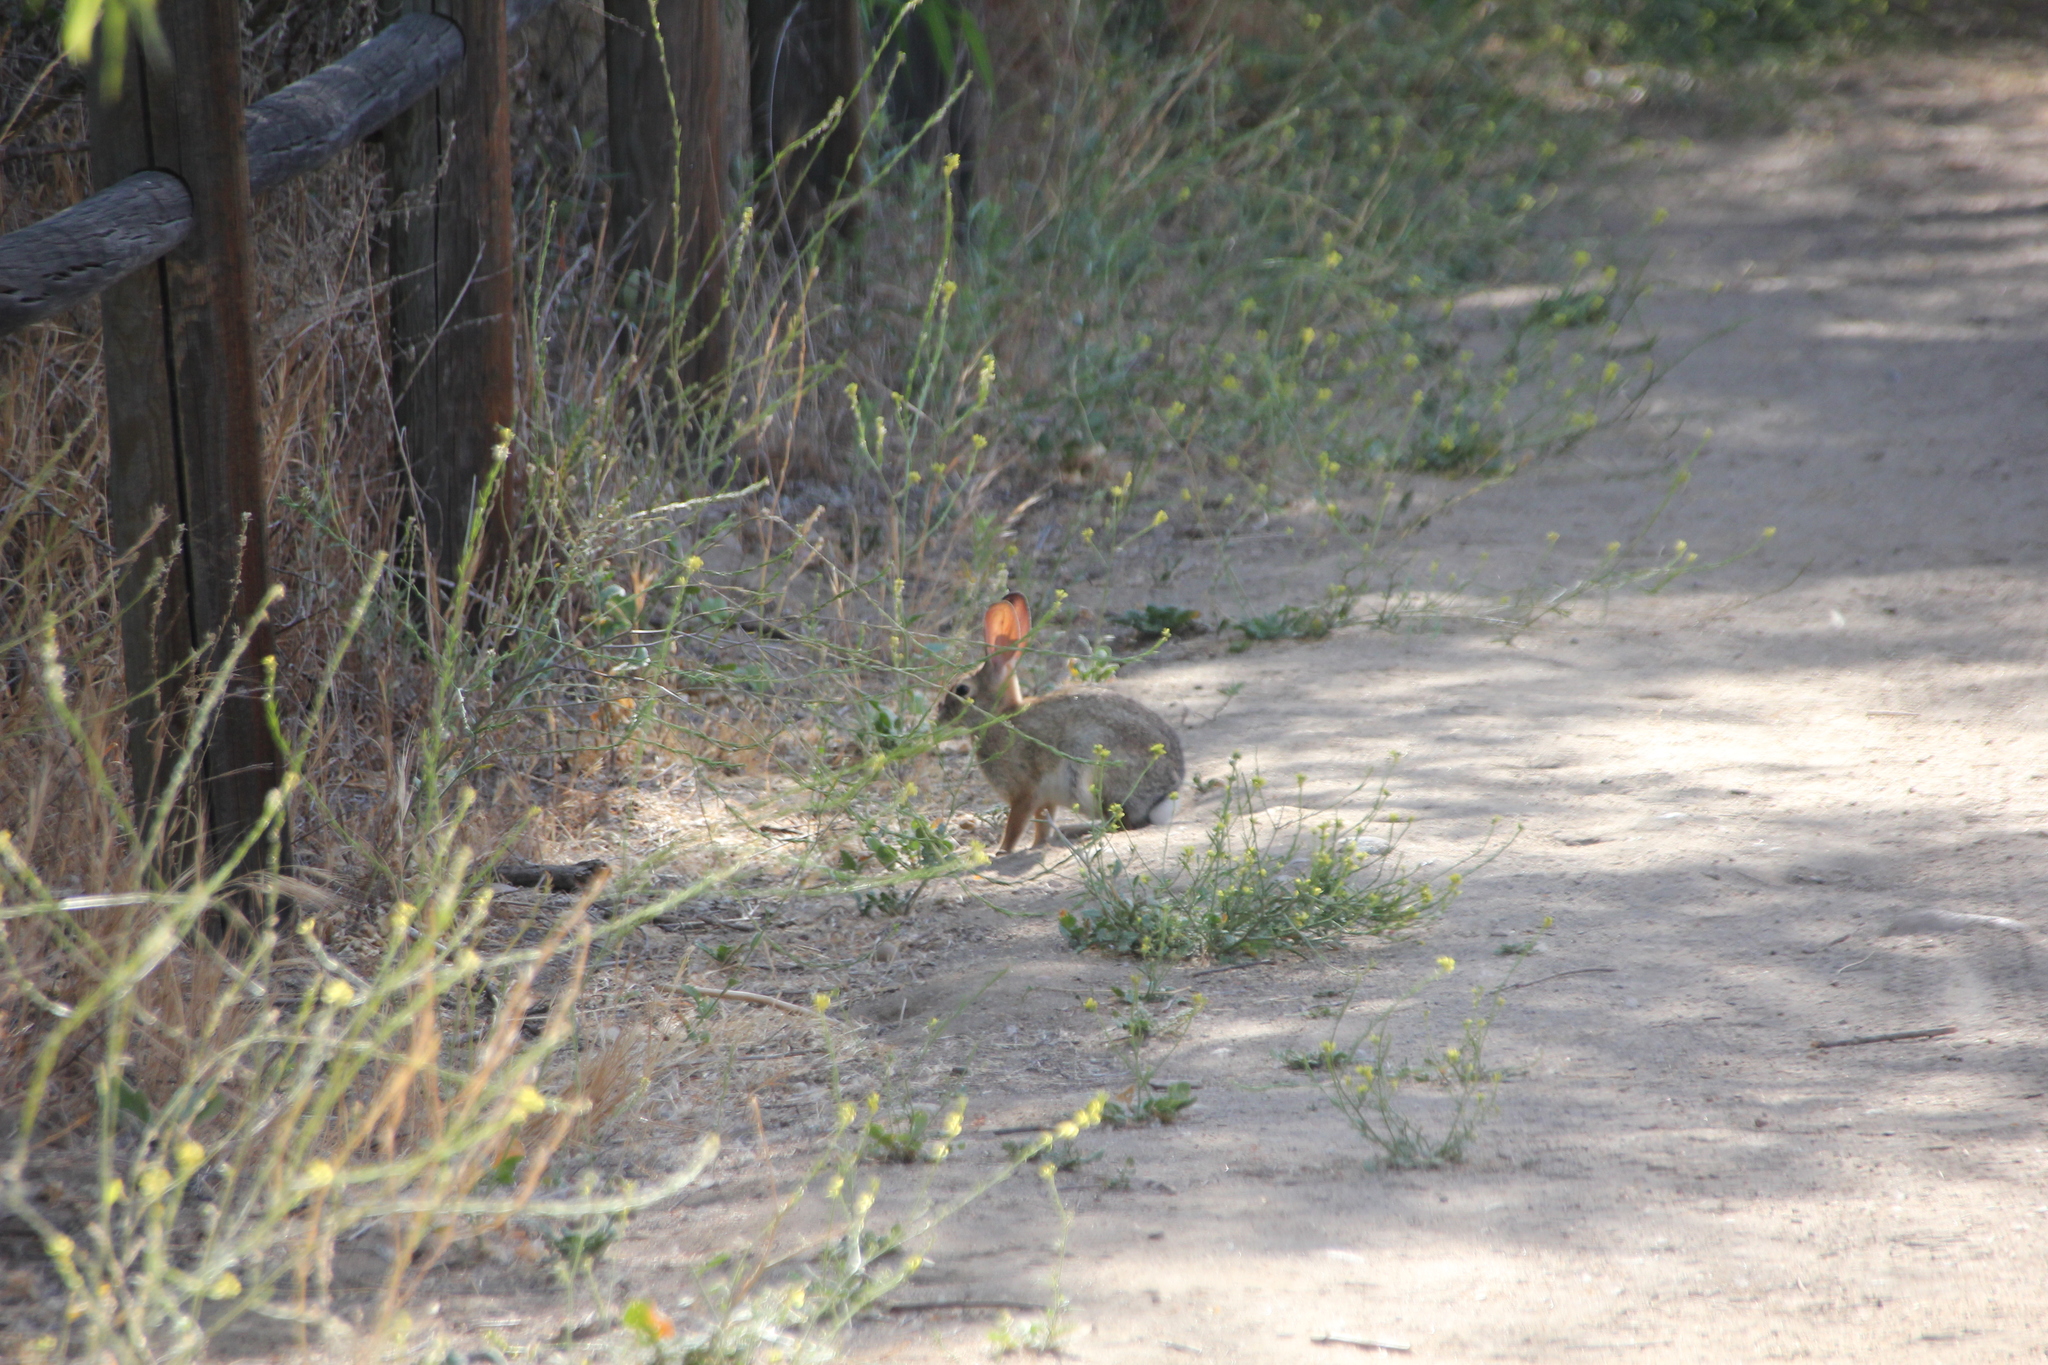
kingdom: Animalia
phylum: Chordata
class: Mammalia
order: Lagomorpha
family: Leporidae
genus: Sylvilagus
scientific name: Sylvilagus audubonii
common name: Desert cottontail
